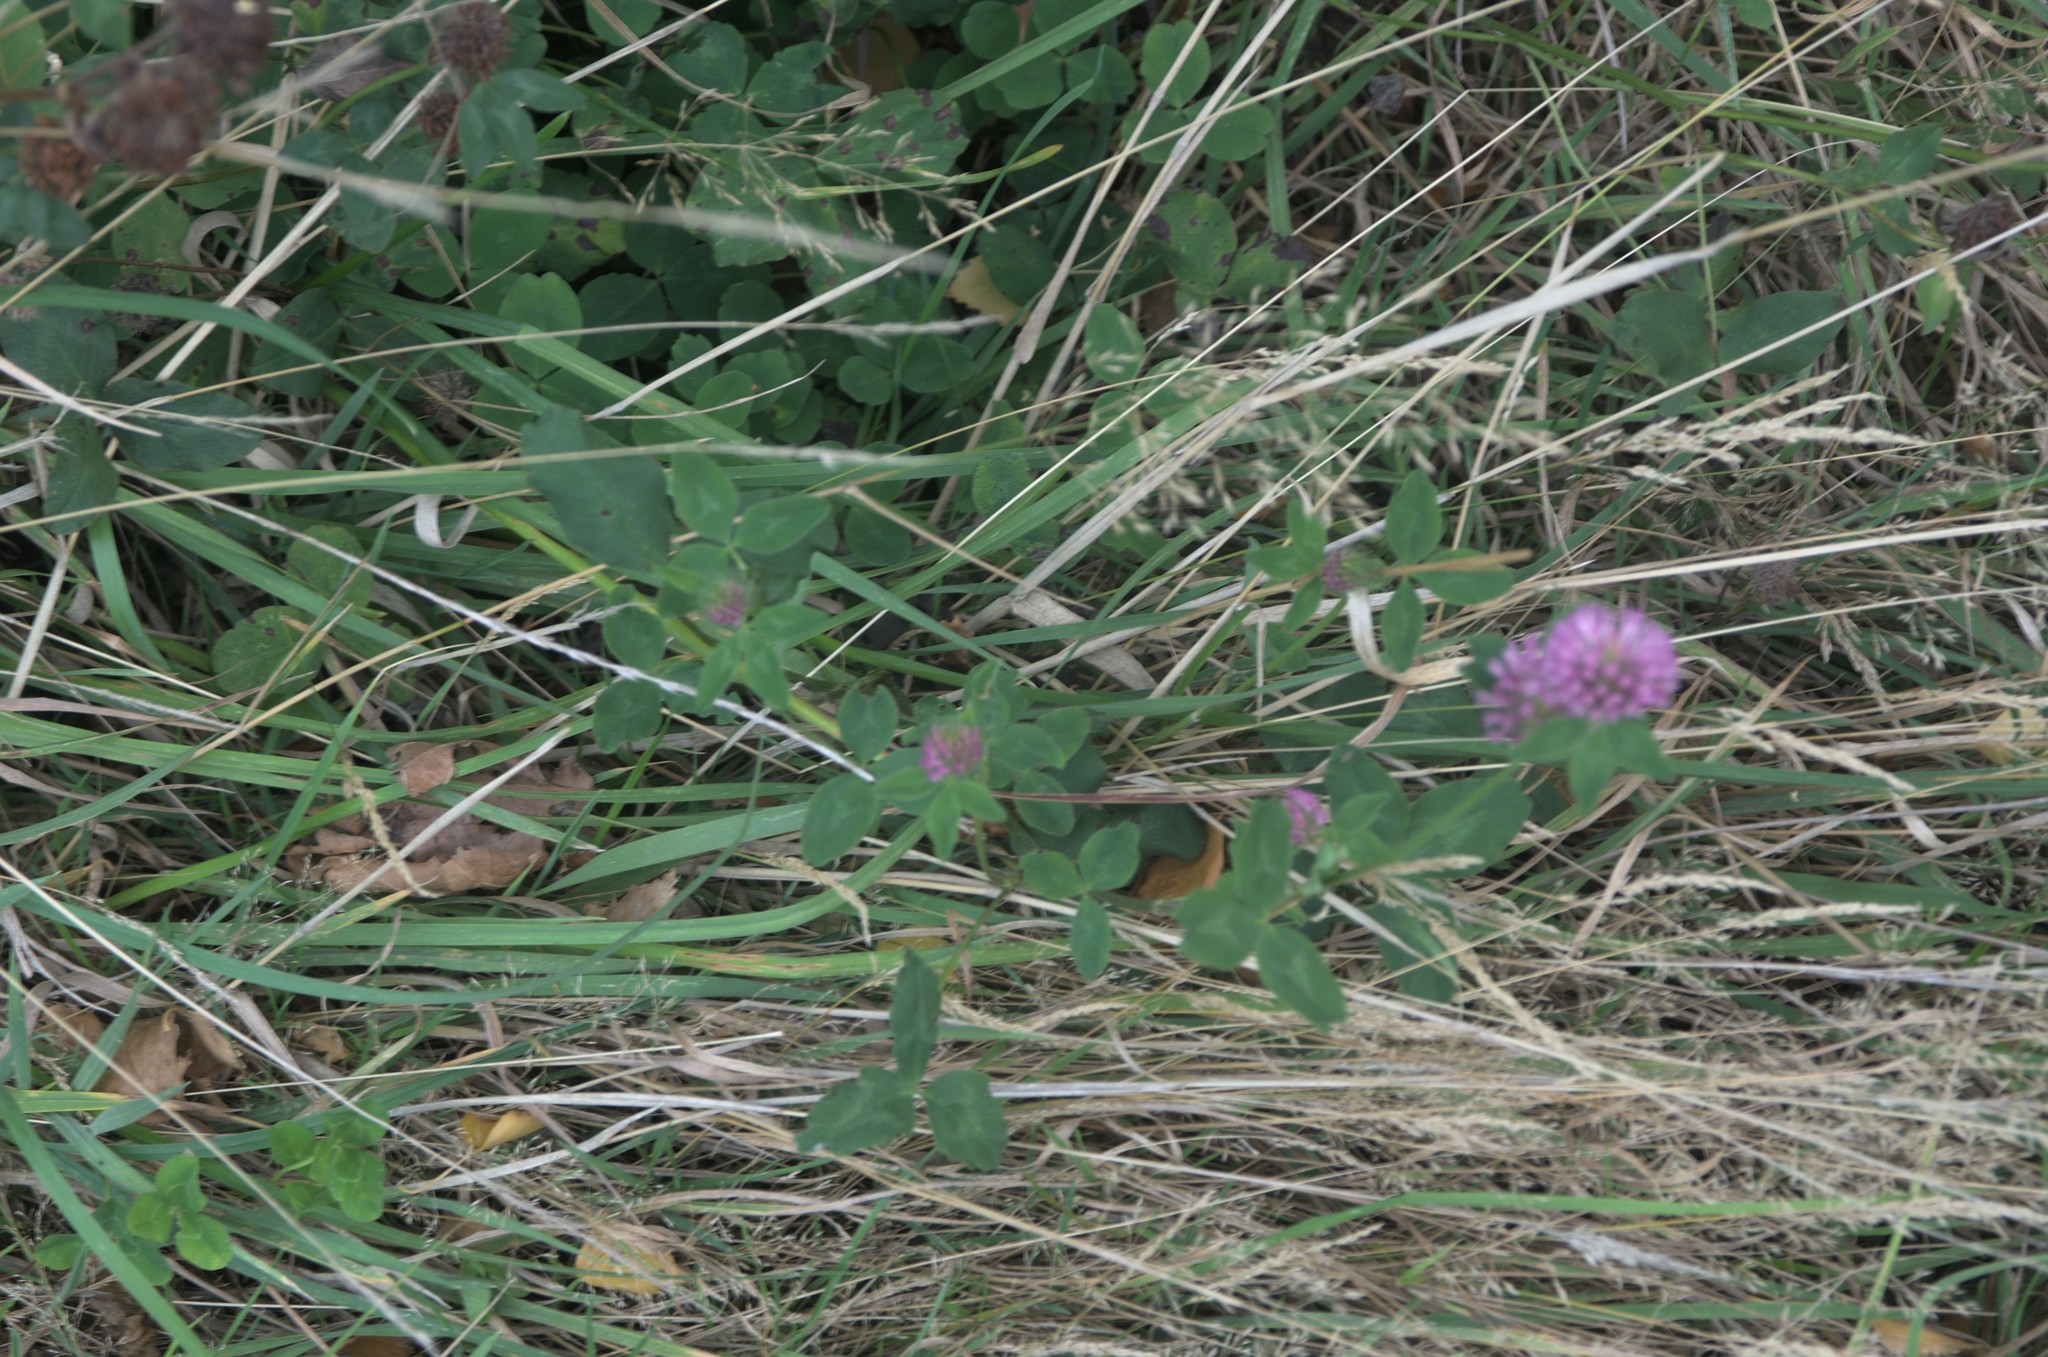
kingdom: Plantae
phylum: Tracheophyta
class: Magnoliopsida
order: Fabales
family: Fabaceae
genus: Trifolium
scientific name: Trifolium pratense
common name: Red clover
